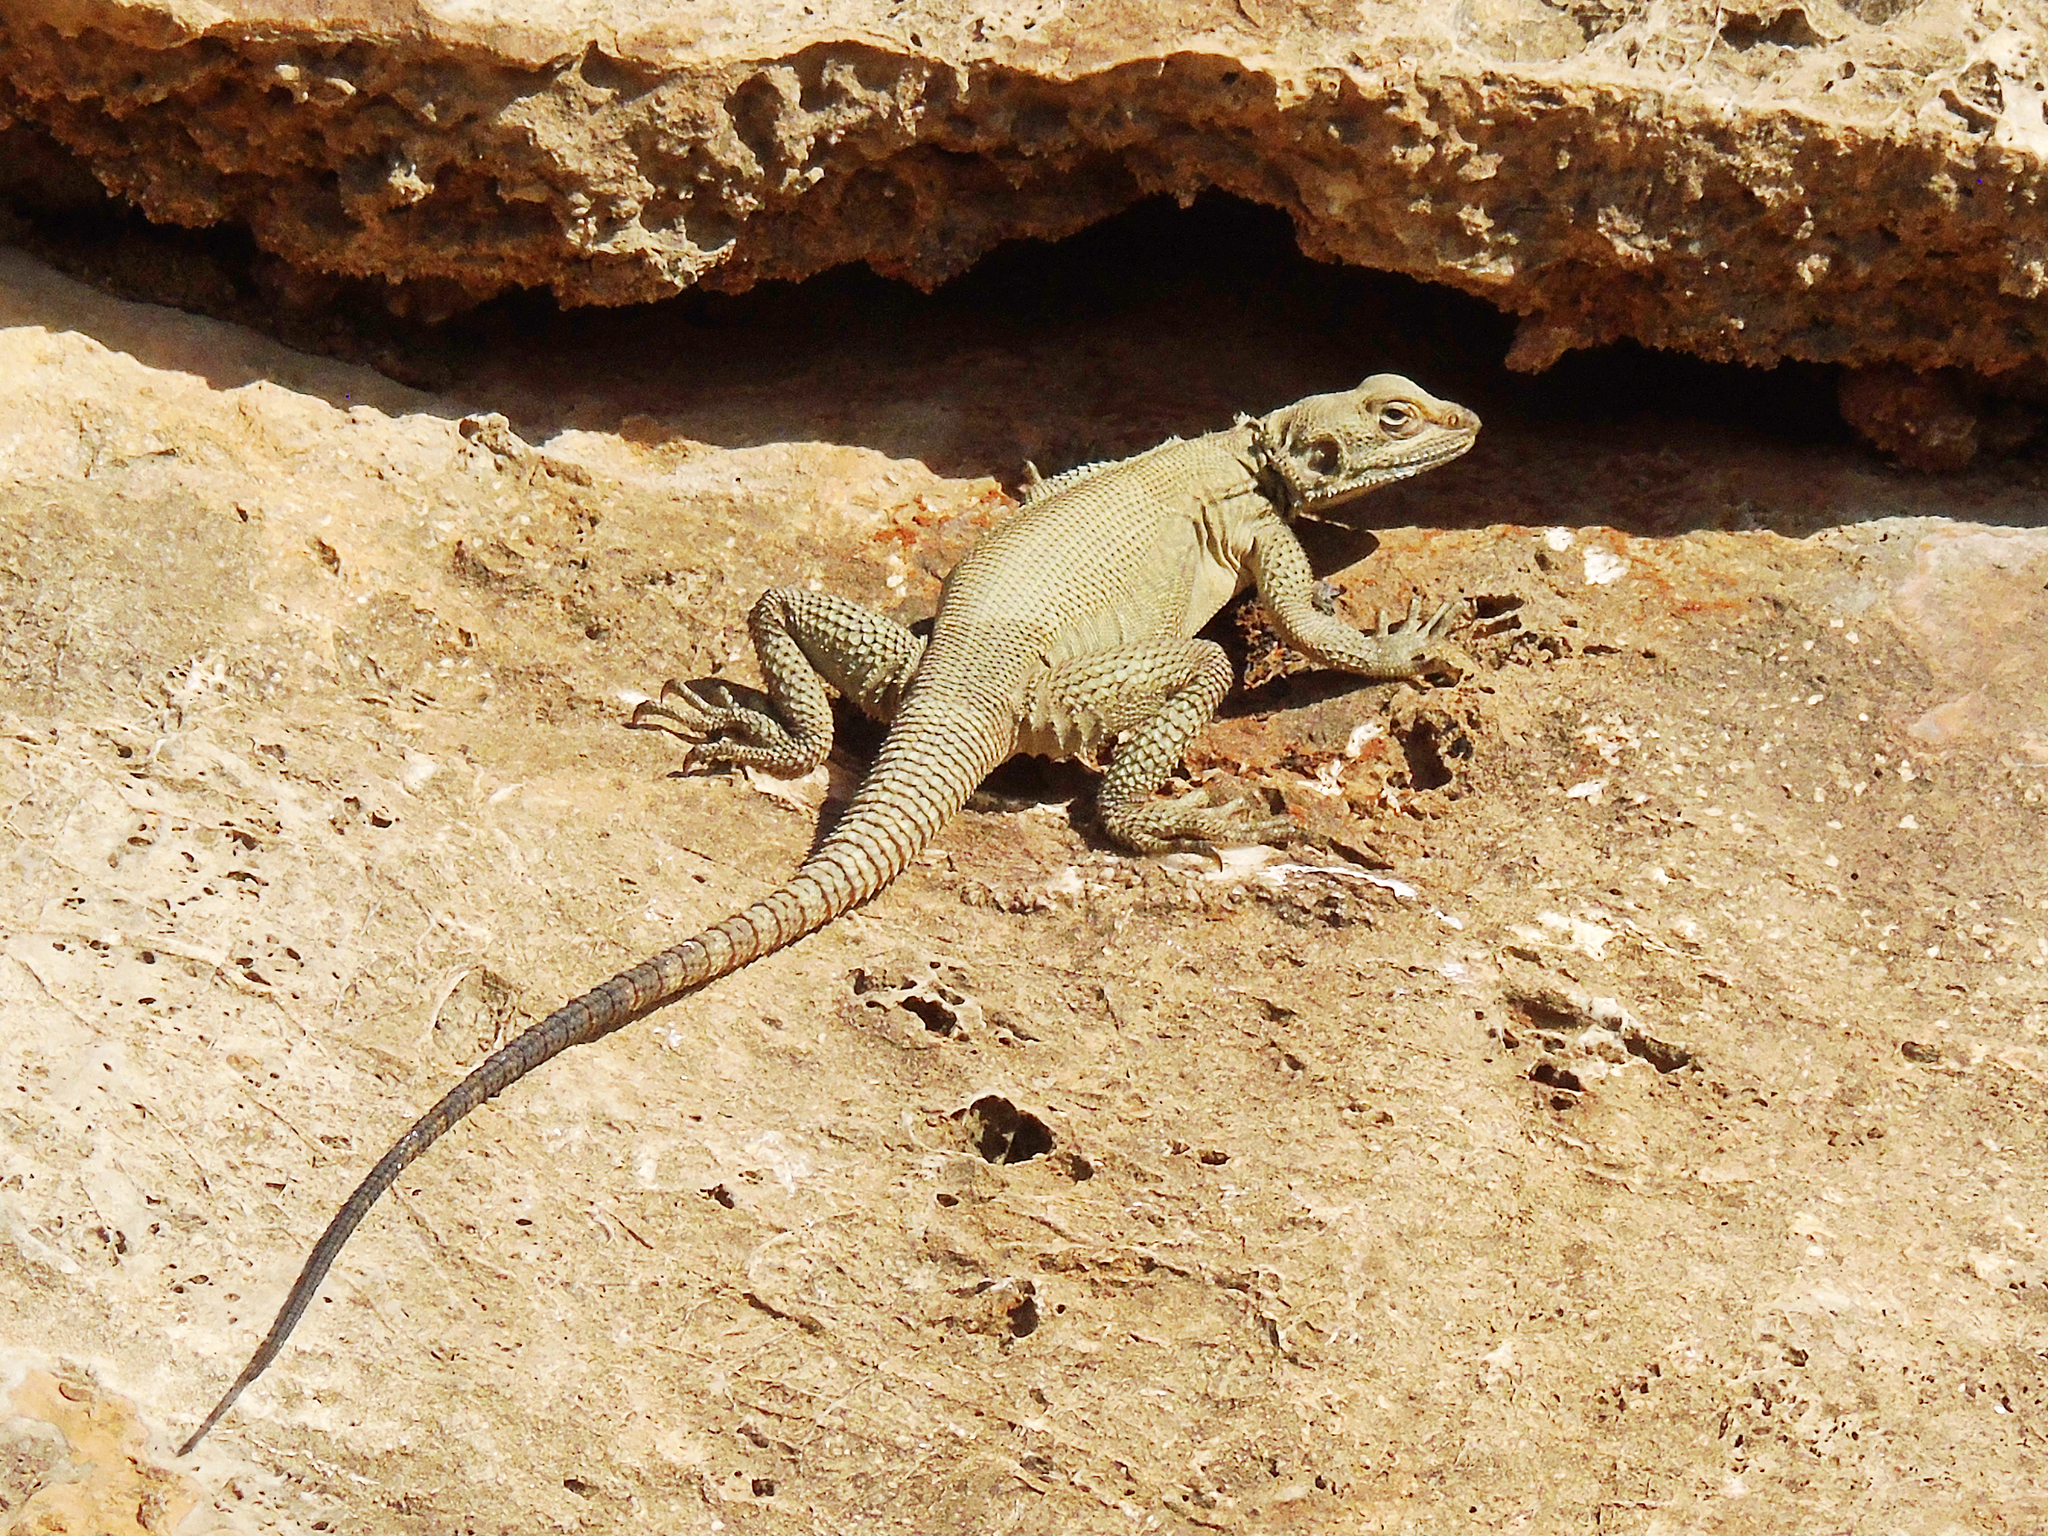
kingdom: Animalia
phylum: Chordata
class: Squamata
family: Agamidae
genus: Laudakia
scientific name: Laudakia nupta
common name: Large-headed rock agama
